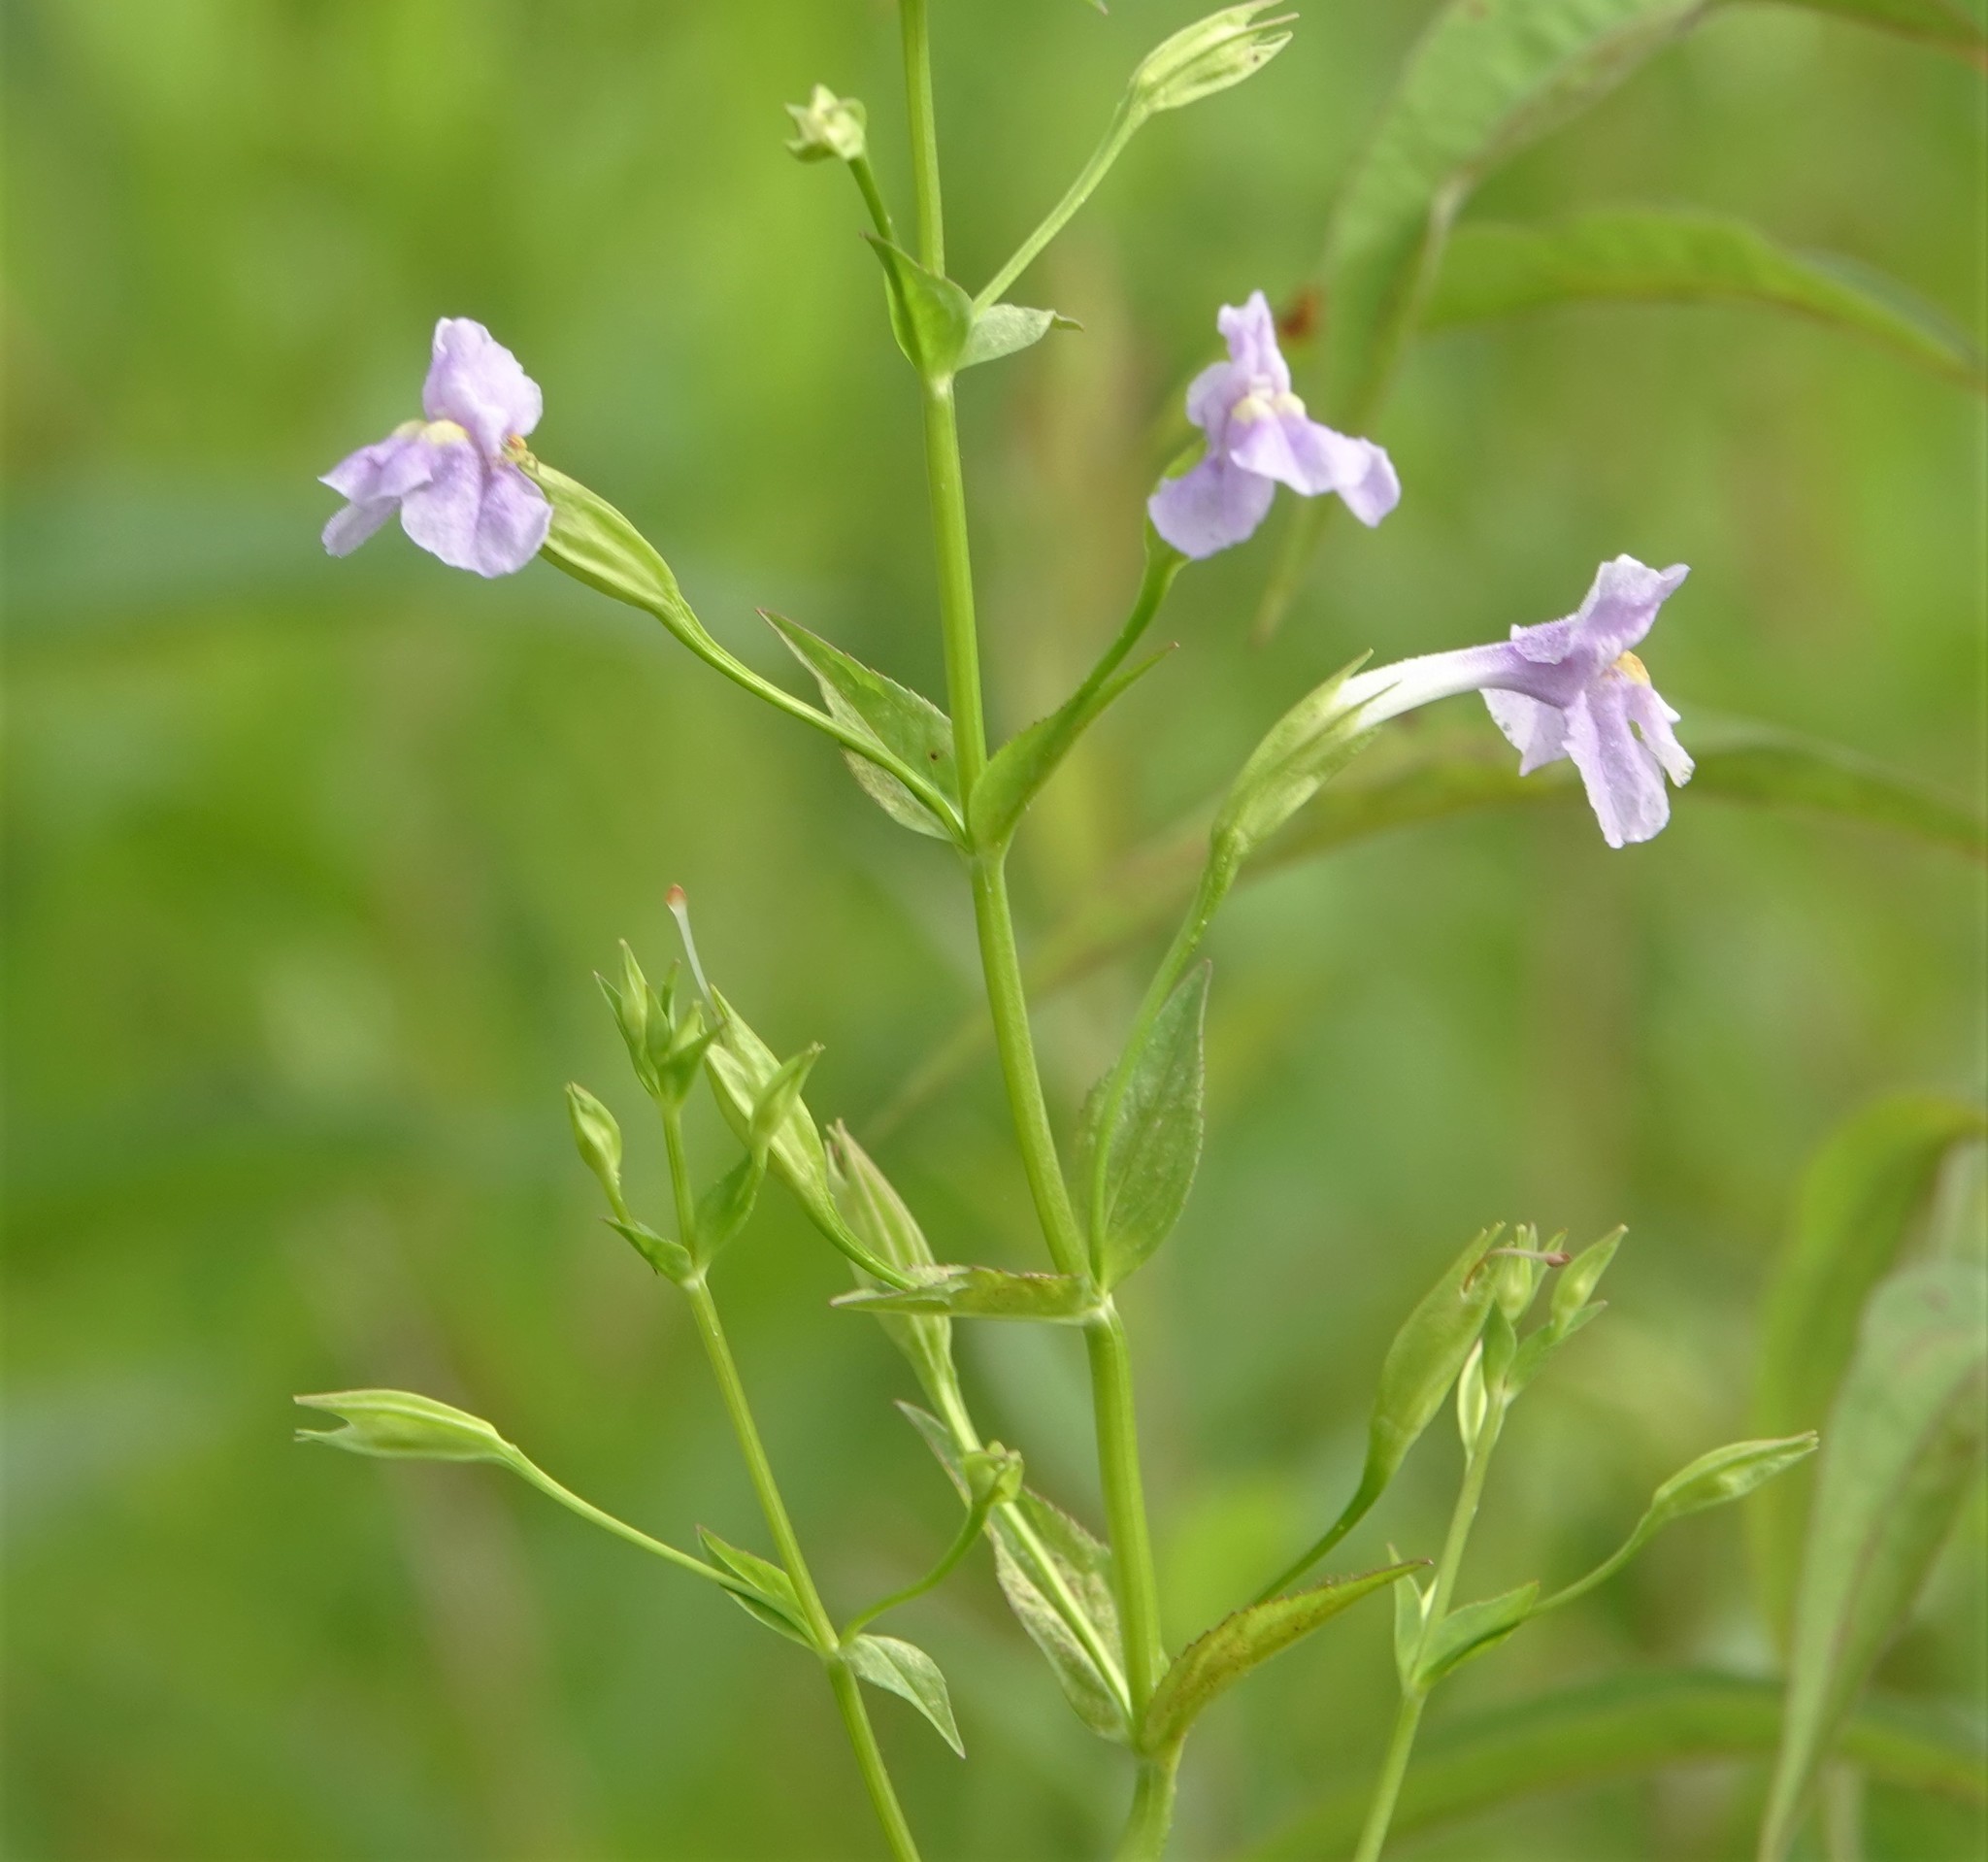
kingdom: Plantae
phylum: Tracheophyta
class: Magnoliopsida
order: Lamiales
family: Phrymaceae
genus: Mimulus
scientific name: Mimulus ringens
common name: Allegheny monkeyflower
